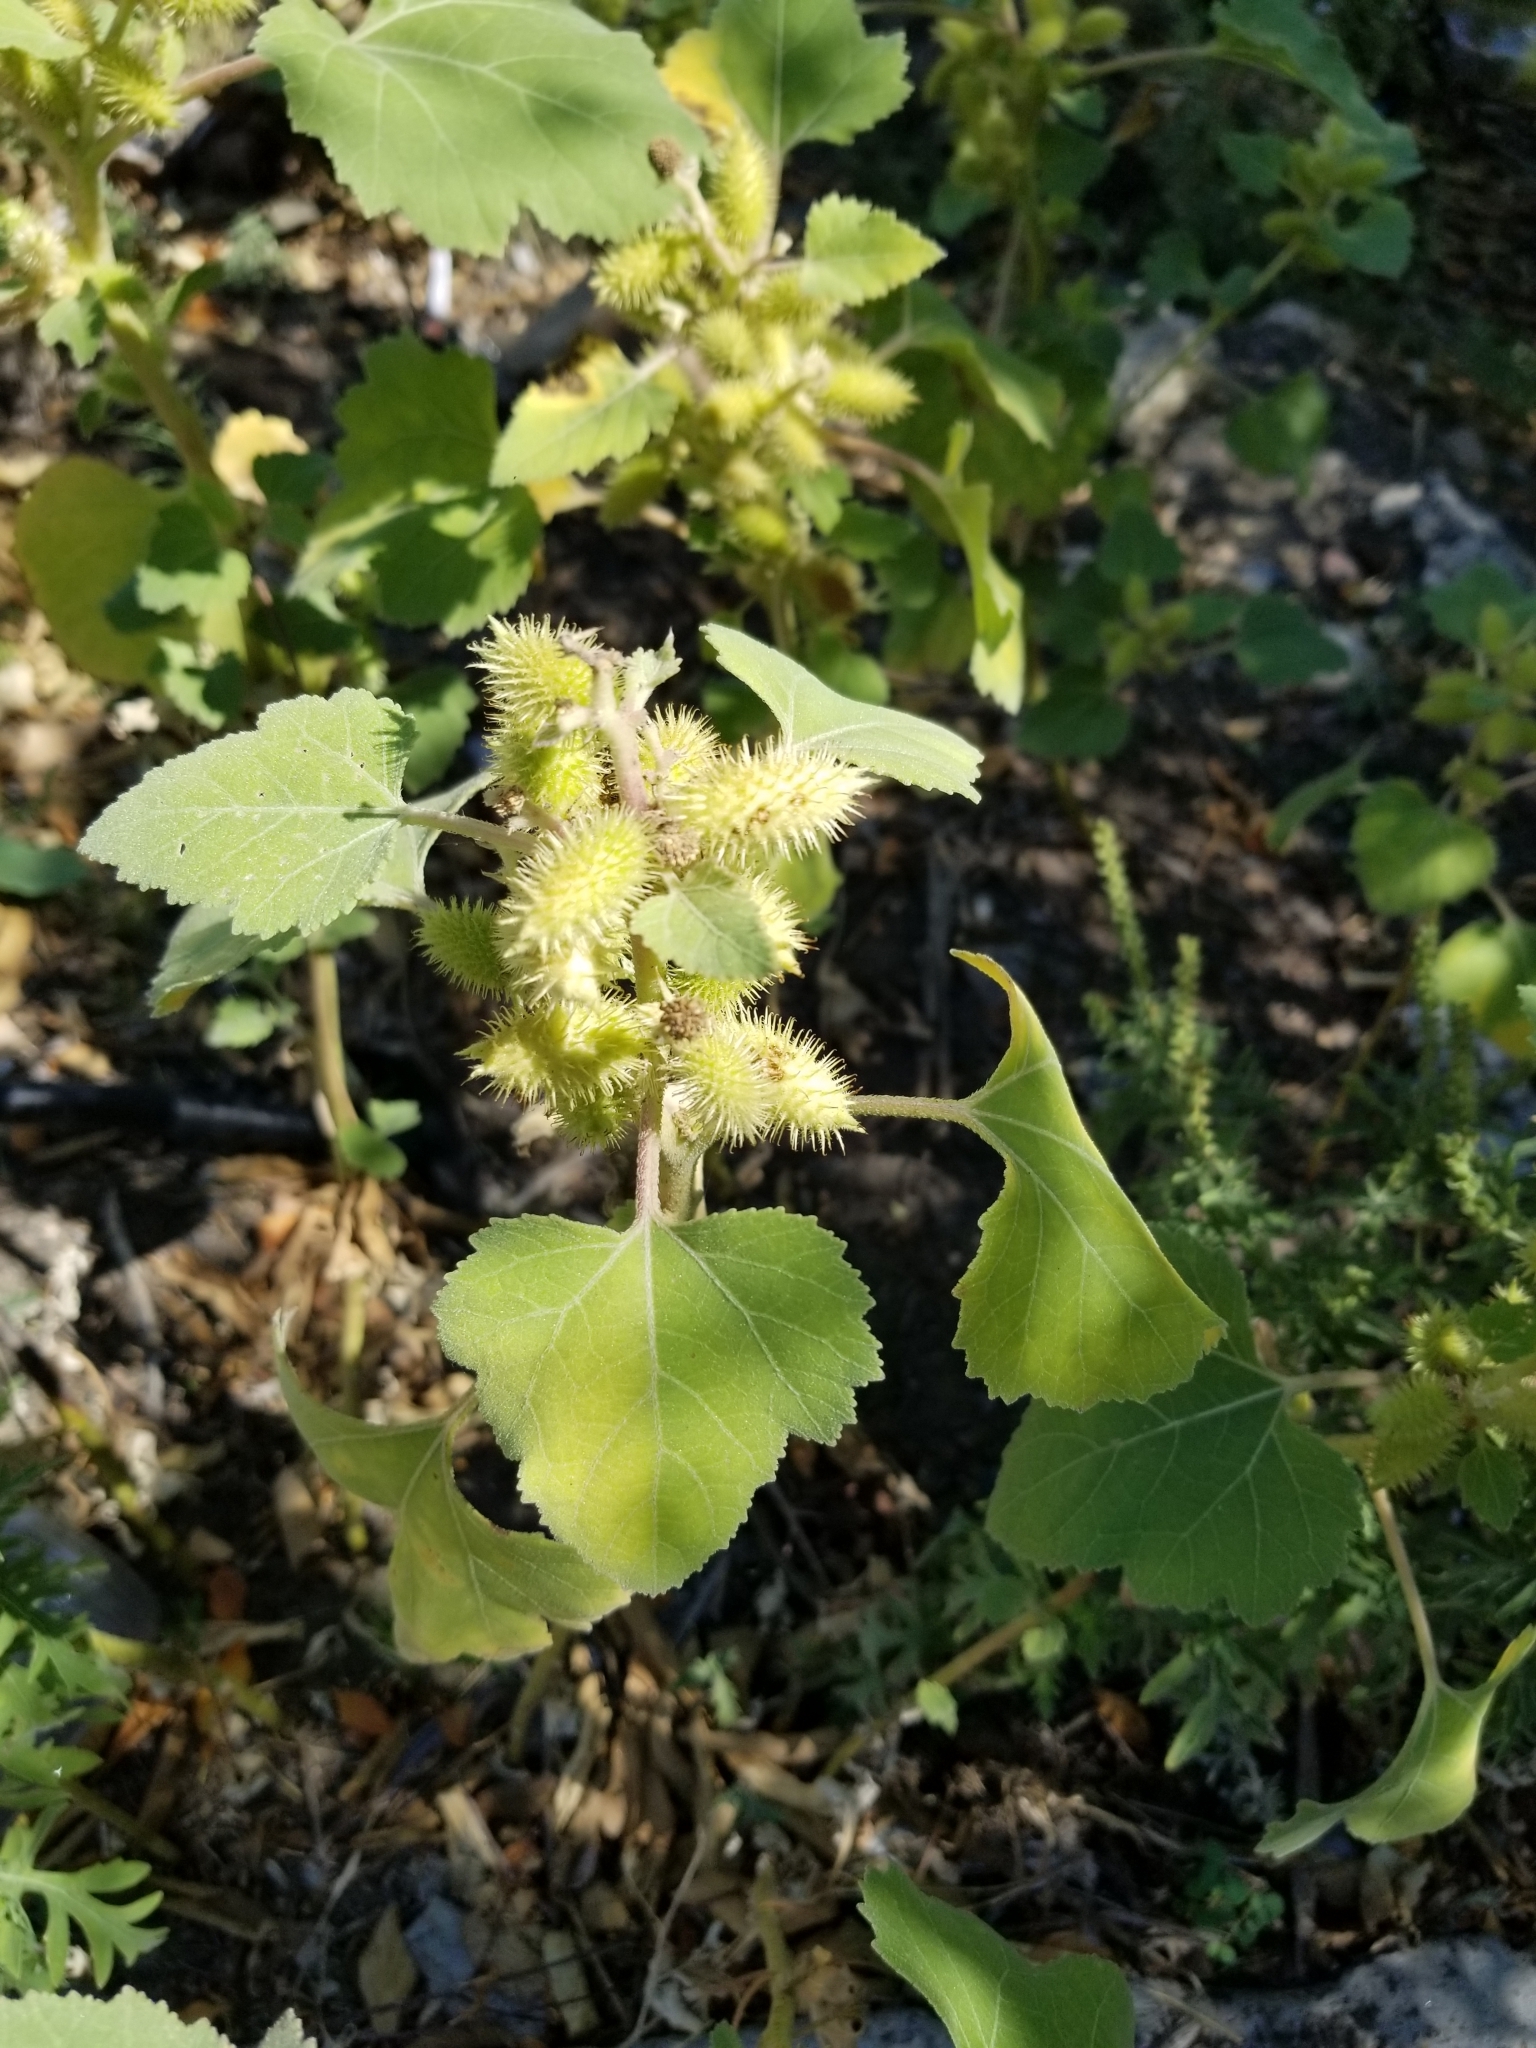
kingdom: Plantae
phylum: Tracheophyta
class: Magnoliopsida
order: Asterales
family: Asteraceae
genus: Xanthium
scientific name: Xanthium strumarium
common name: Rough cocklebur
